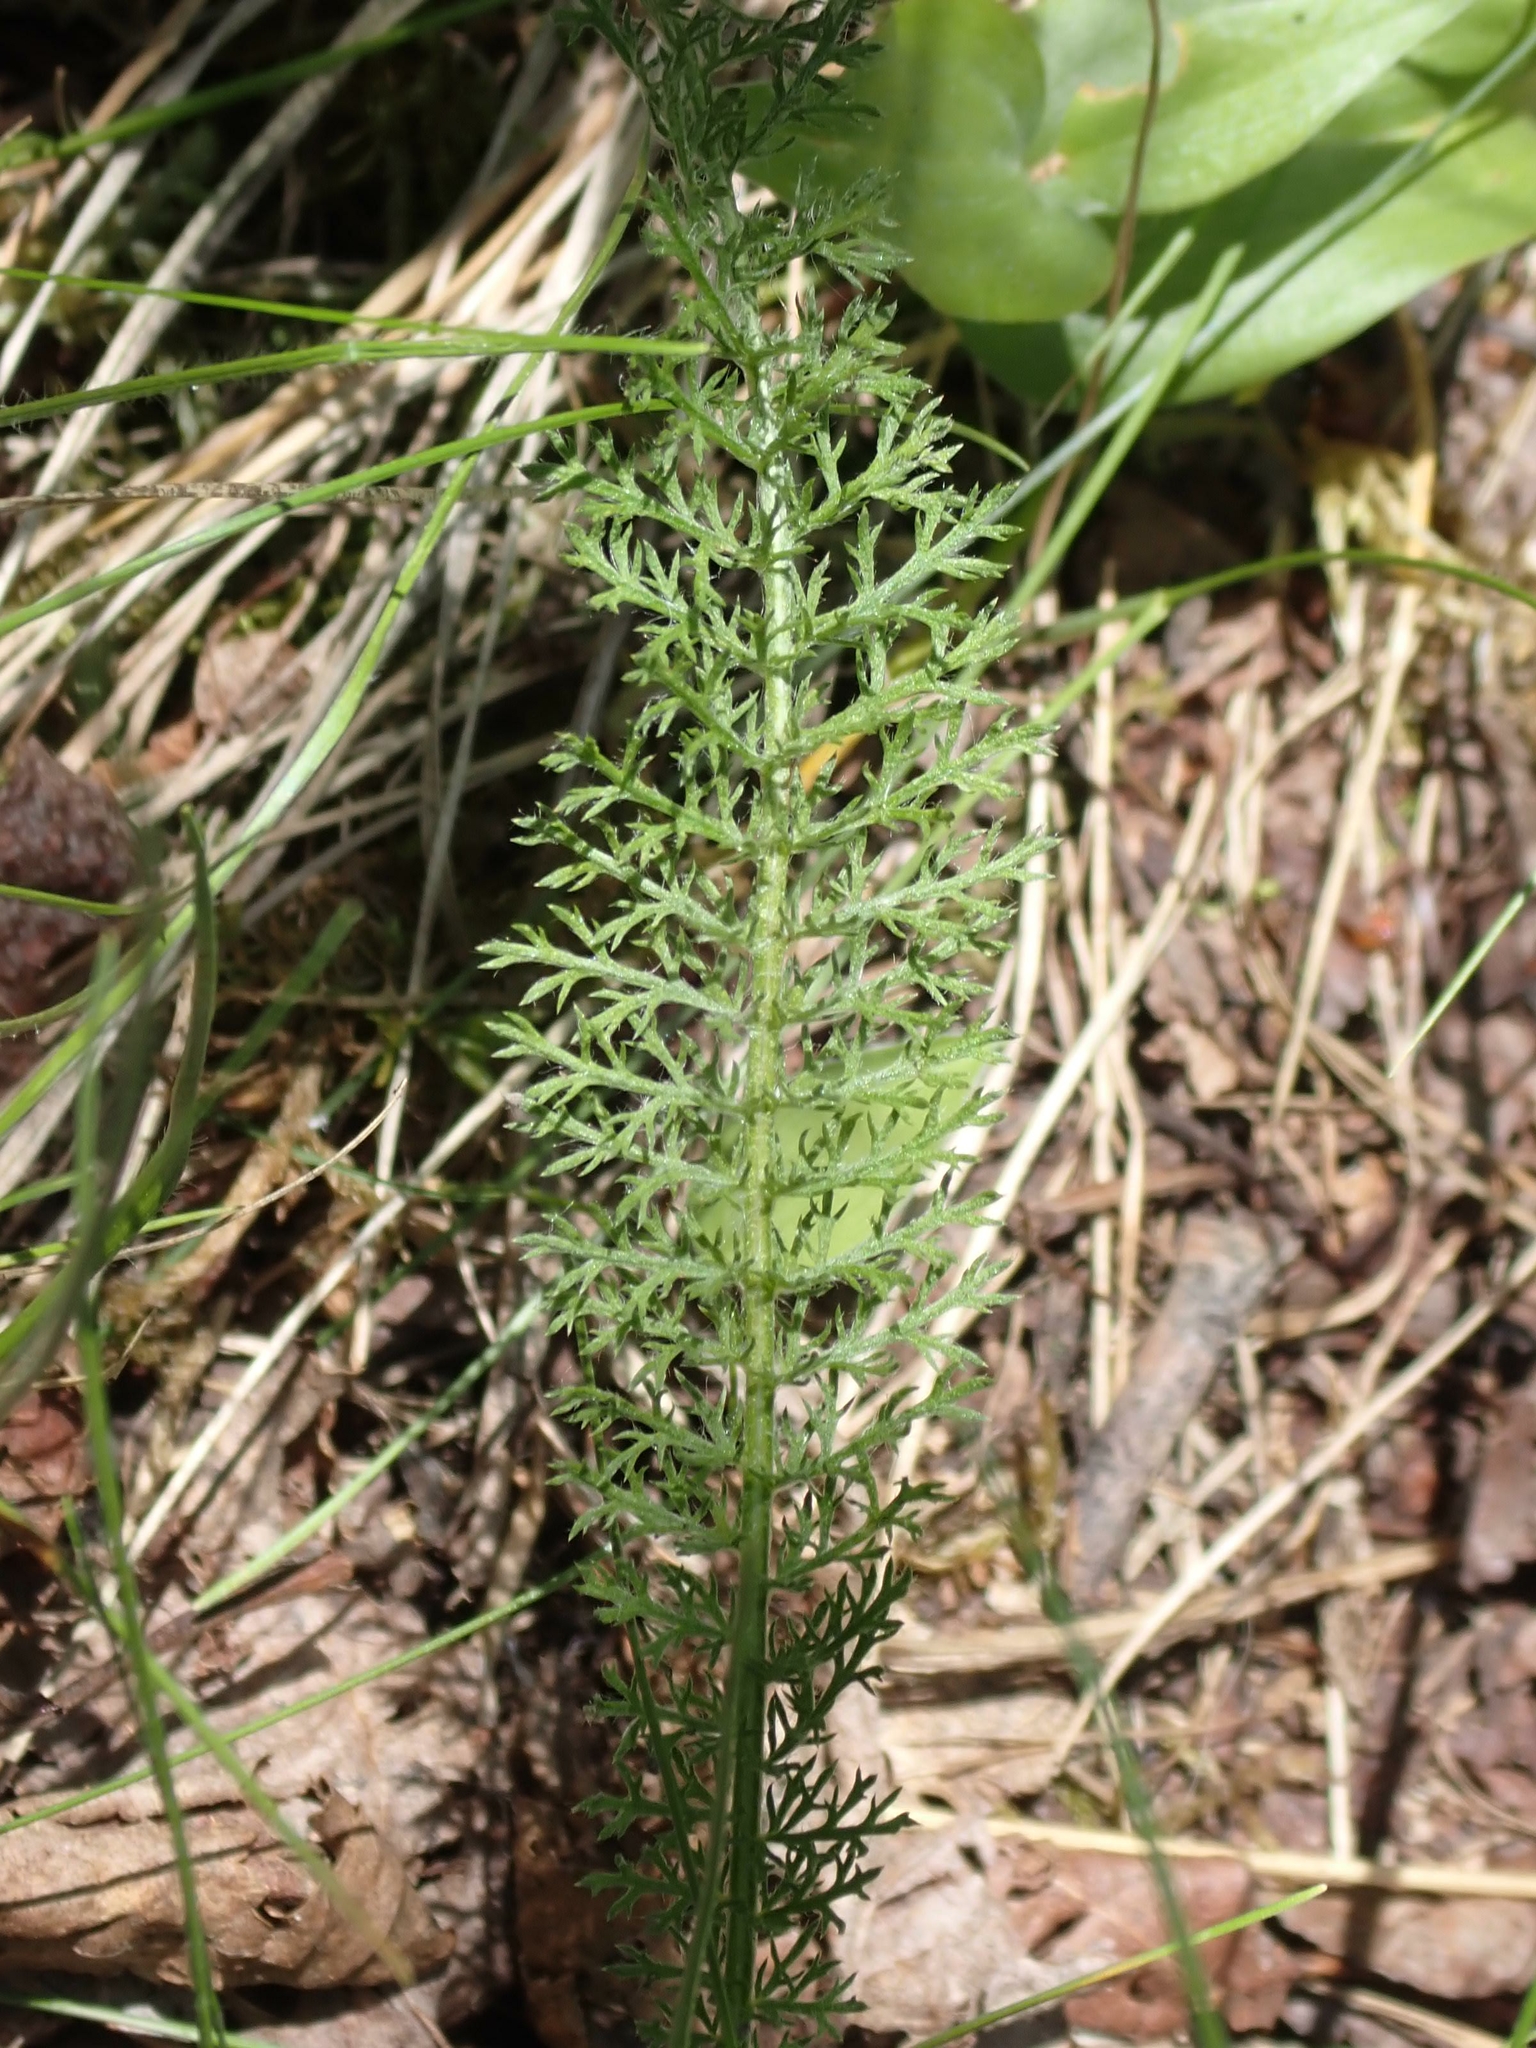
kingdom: Plantae
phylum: Tracheophyta
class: Magnoliopsida
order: Asterales
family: Asteraceae
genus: Achillea
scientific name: Achillea millefolium
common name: Yarrow
